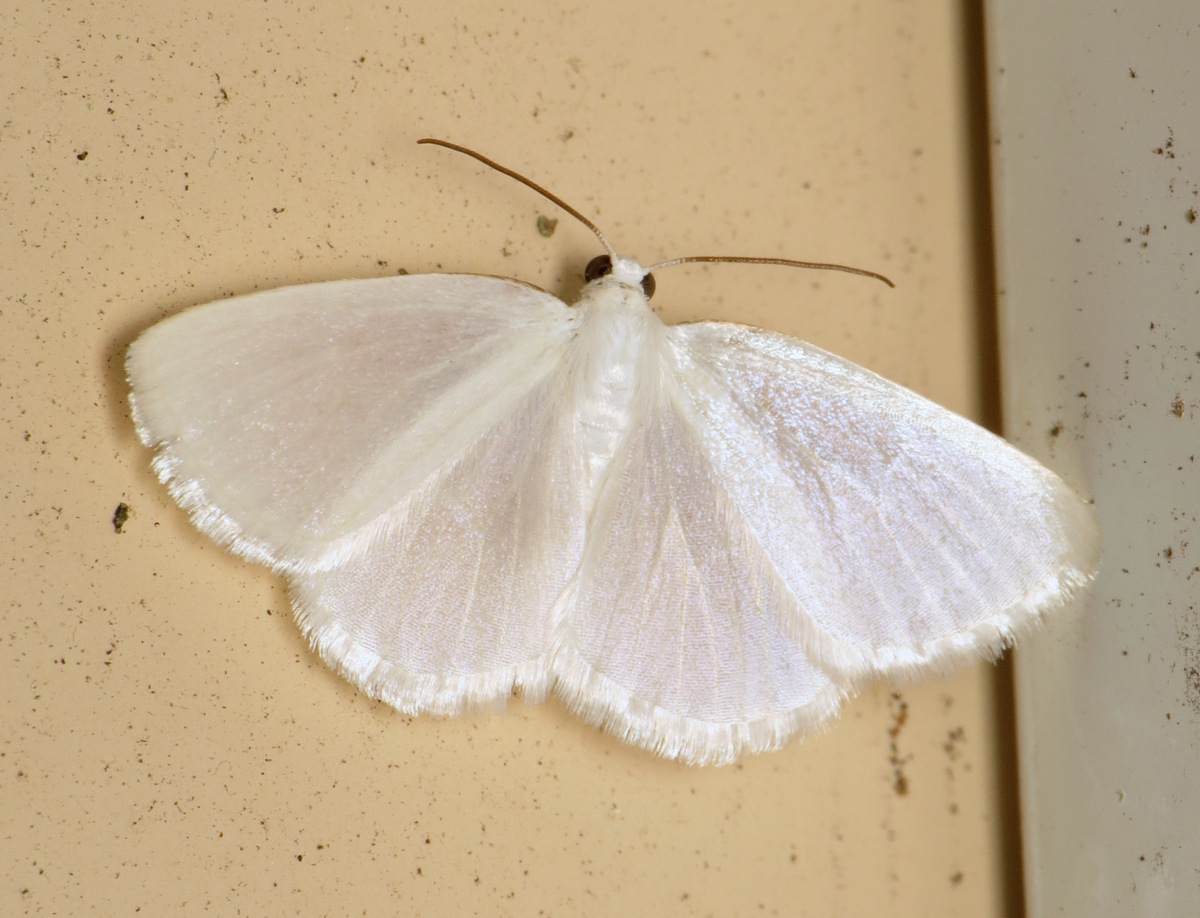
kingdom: Animalia
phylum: Arthropoda
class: Insecta
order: Lepidoptera
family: Geometridae
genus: Lomographa
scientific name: Lomographa vestaliata
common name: White spring moth
